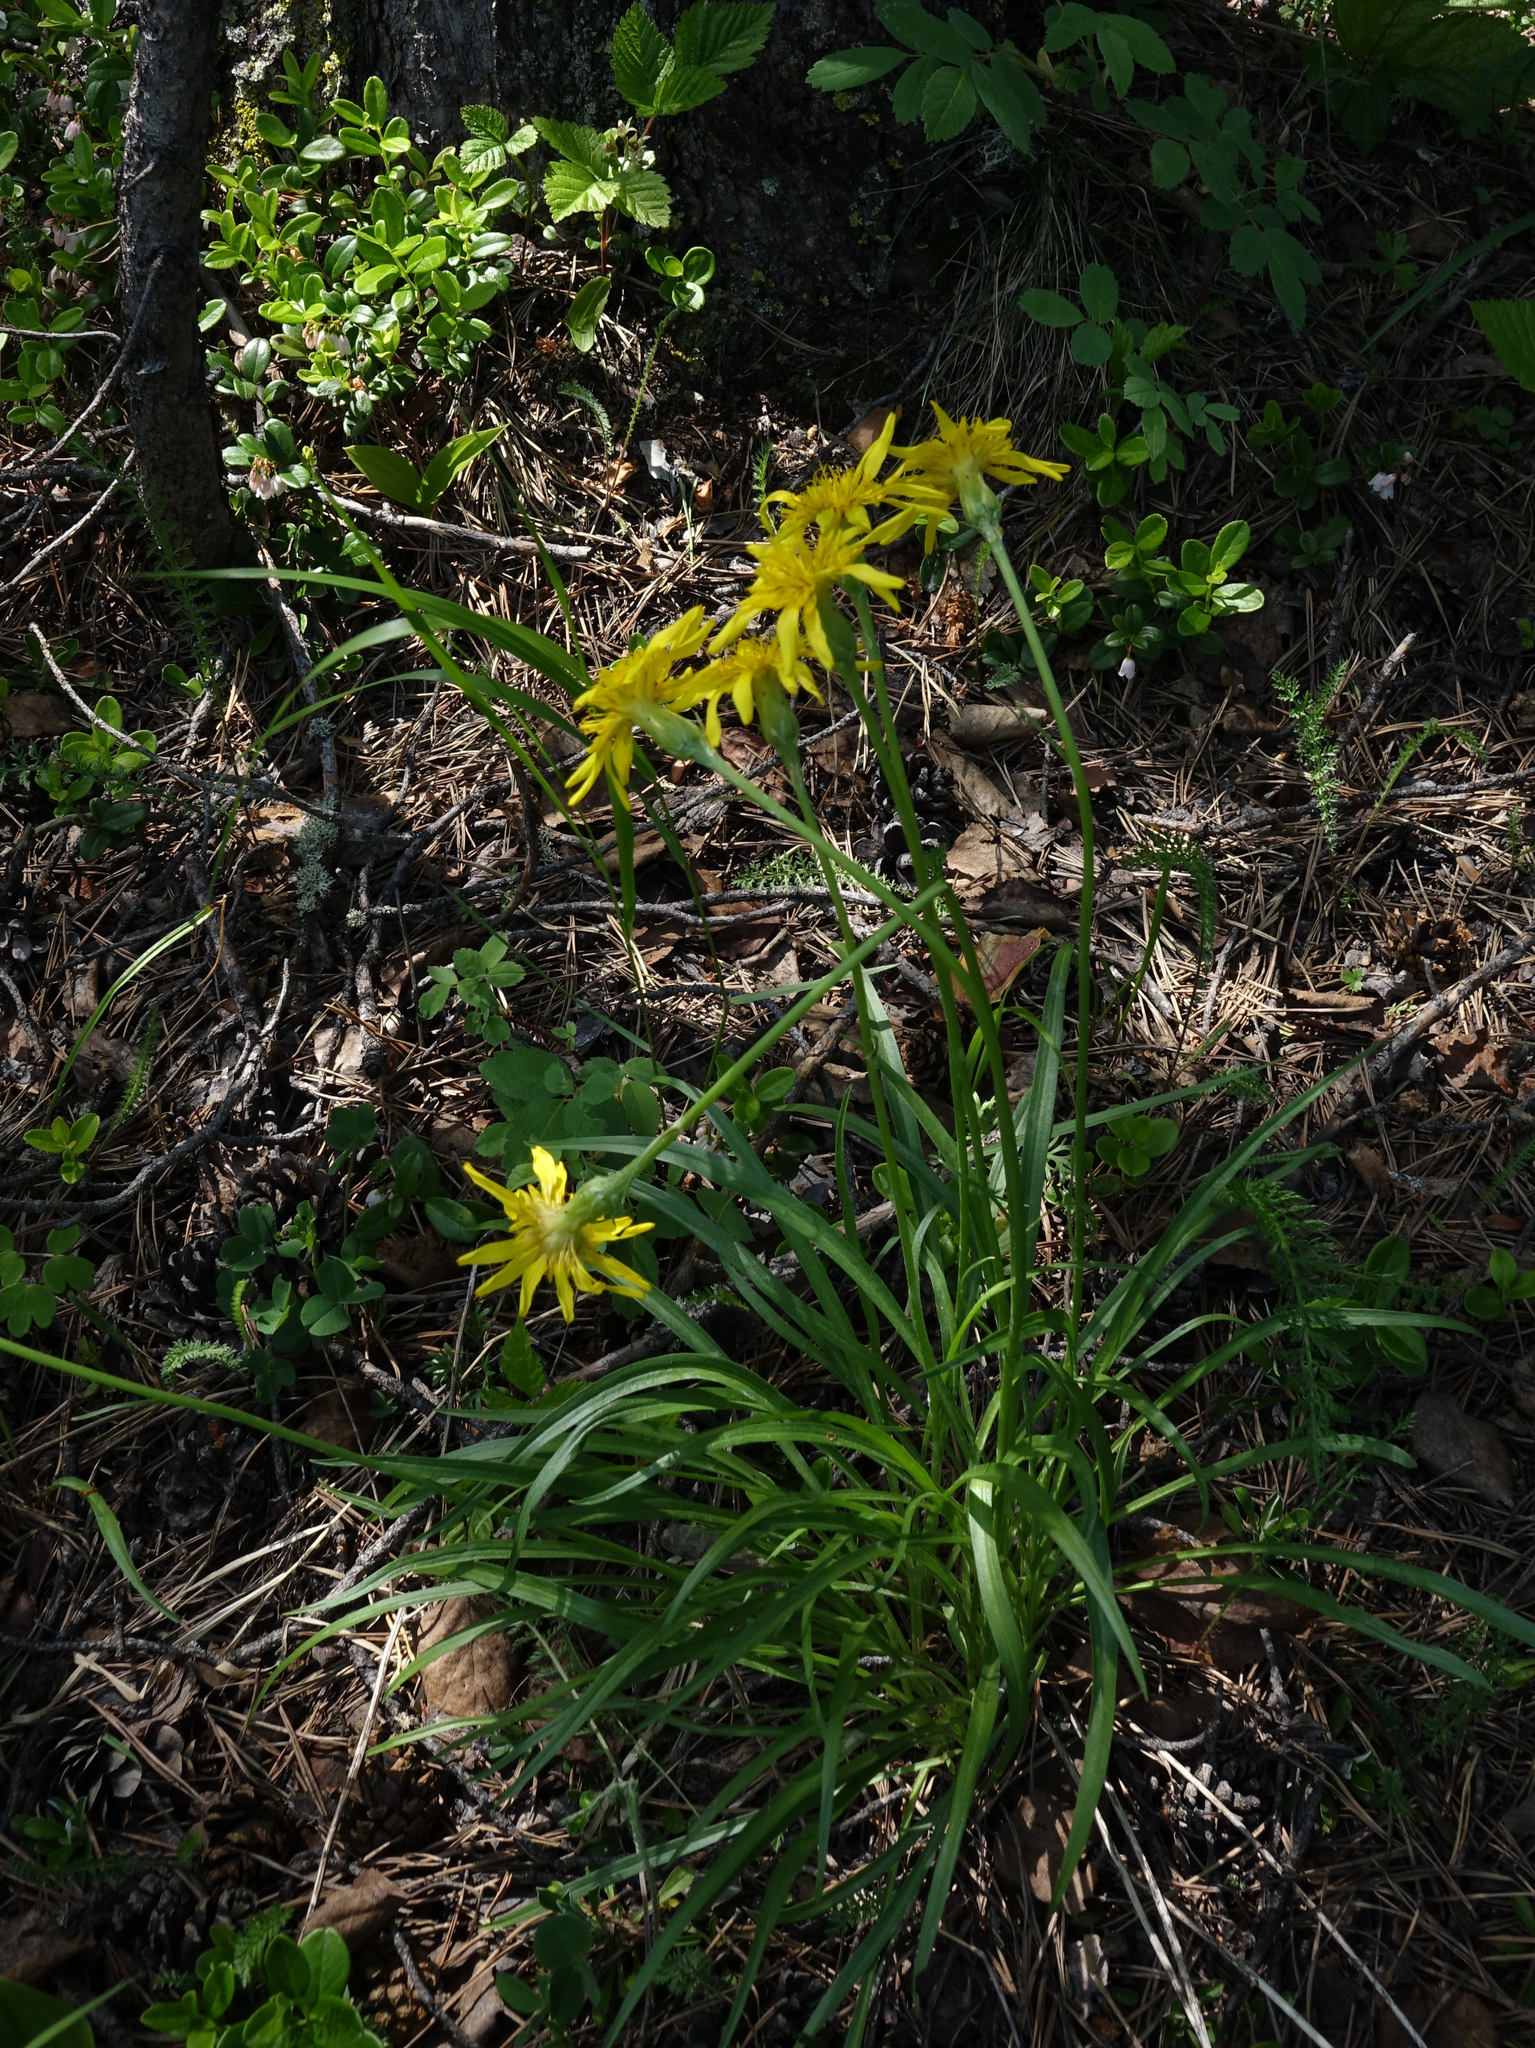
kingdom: Plantae
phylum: Tracheophyta
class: Magnoliopsida
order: Asterales
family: Asteraceae
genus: Scorzonera
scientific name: Scorzonera radiata
